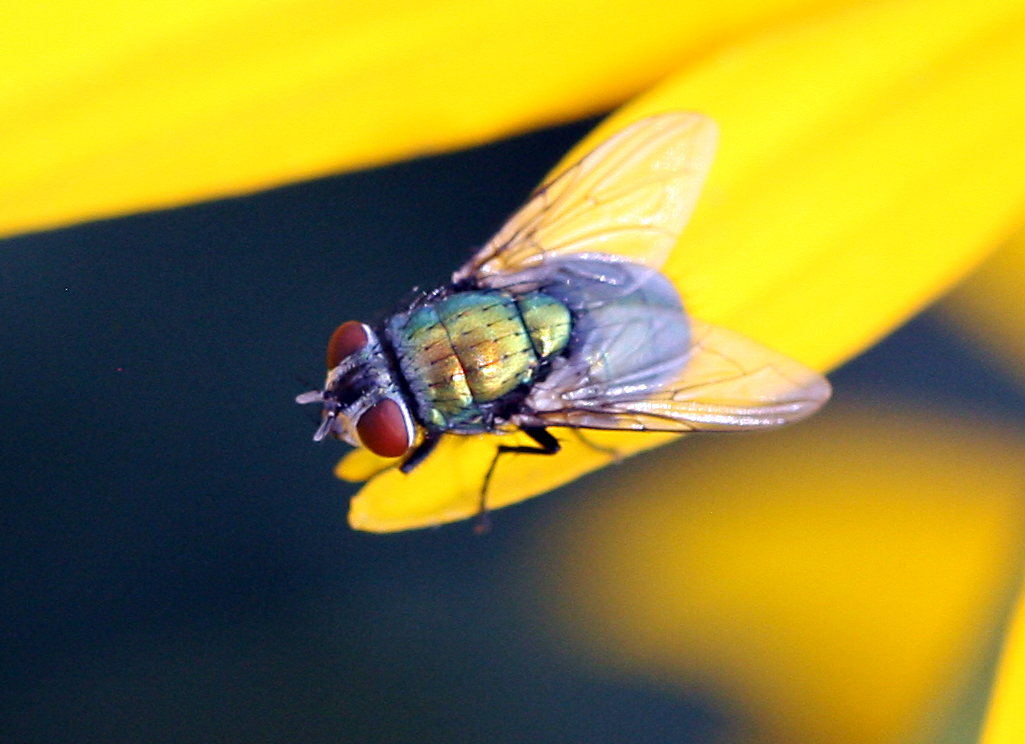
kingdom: Animalia
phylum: Arthropoda
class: Insecta
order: Diptera
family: Calliphoridae
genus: Lucilia
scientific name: Lucilia sericata
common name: Blow fly
